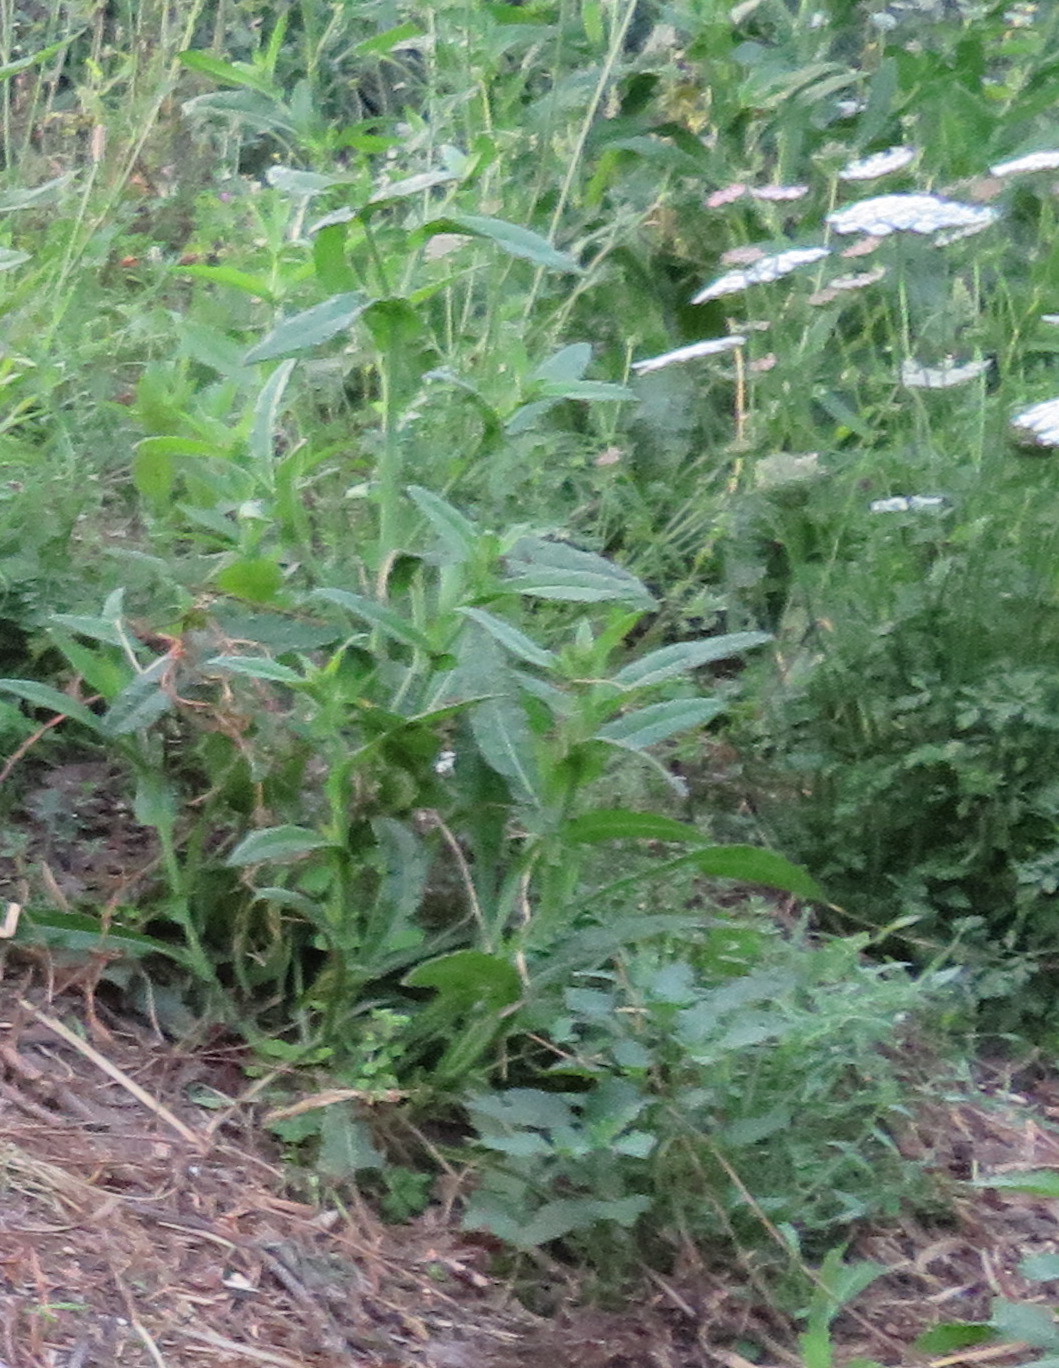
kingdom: Plantae
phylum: Tracheophyta
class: Magnoliopsida
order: Asterales
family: Asteraceae
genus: Helminthotheca
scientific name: Helminthotheca echioides
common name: Ox-tongue
